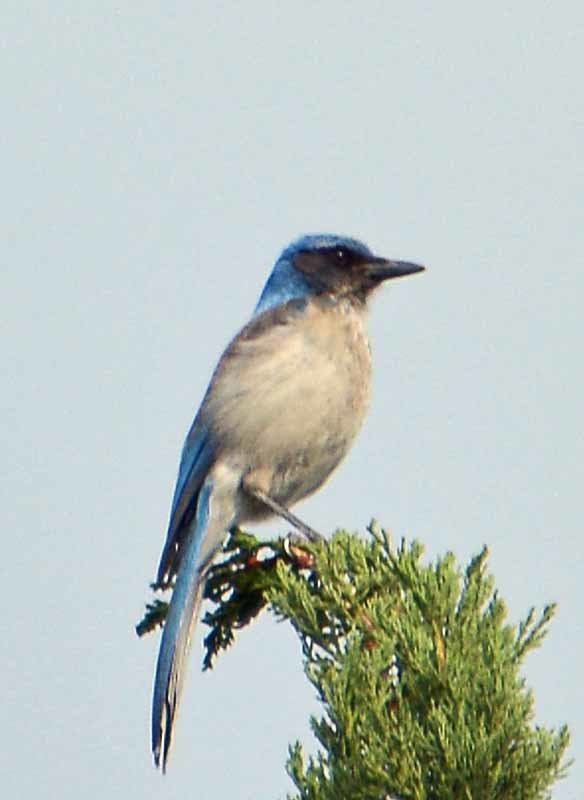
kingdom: Animalia
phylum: Chordata
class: Aves
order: Passeriformes
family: Corvidae
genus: Aphelocoma
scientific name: Aphelocoma woodhouseii
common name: Woodhouse's scrub-jay
